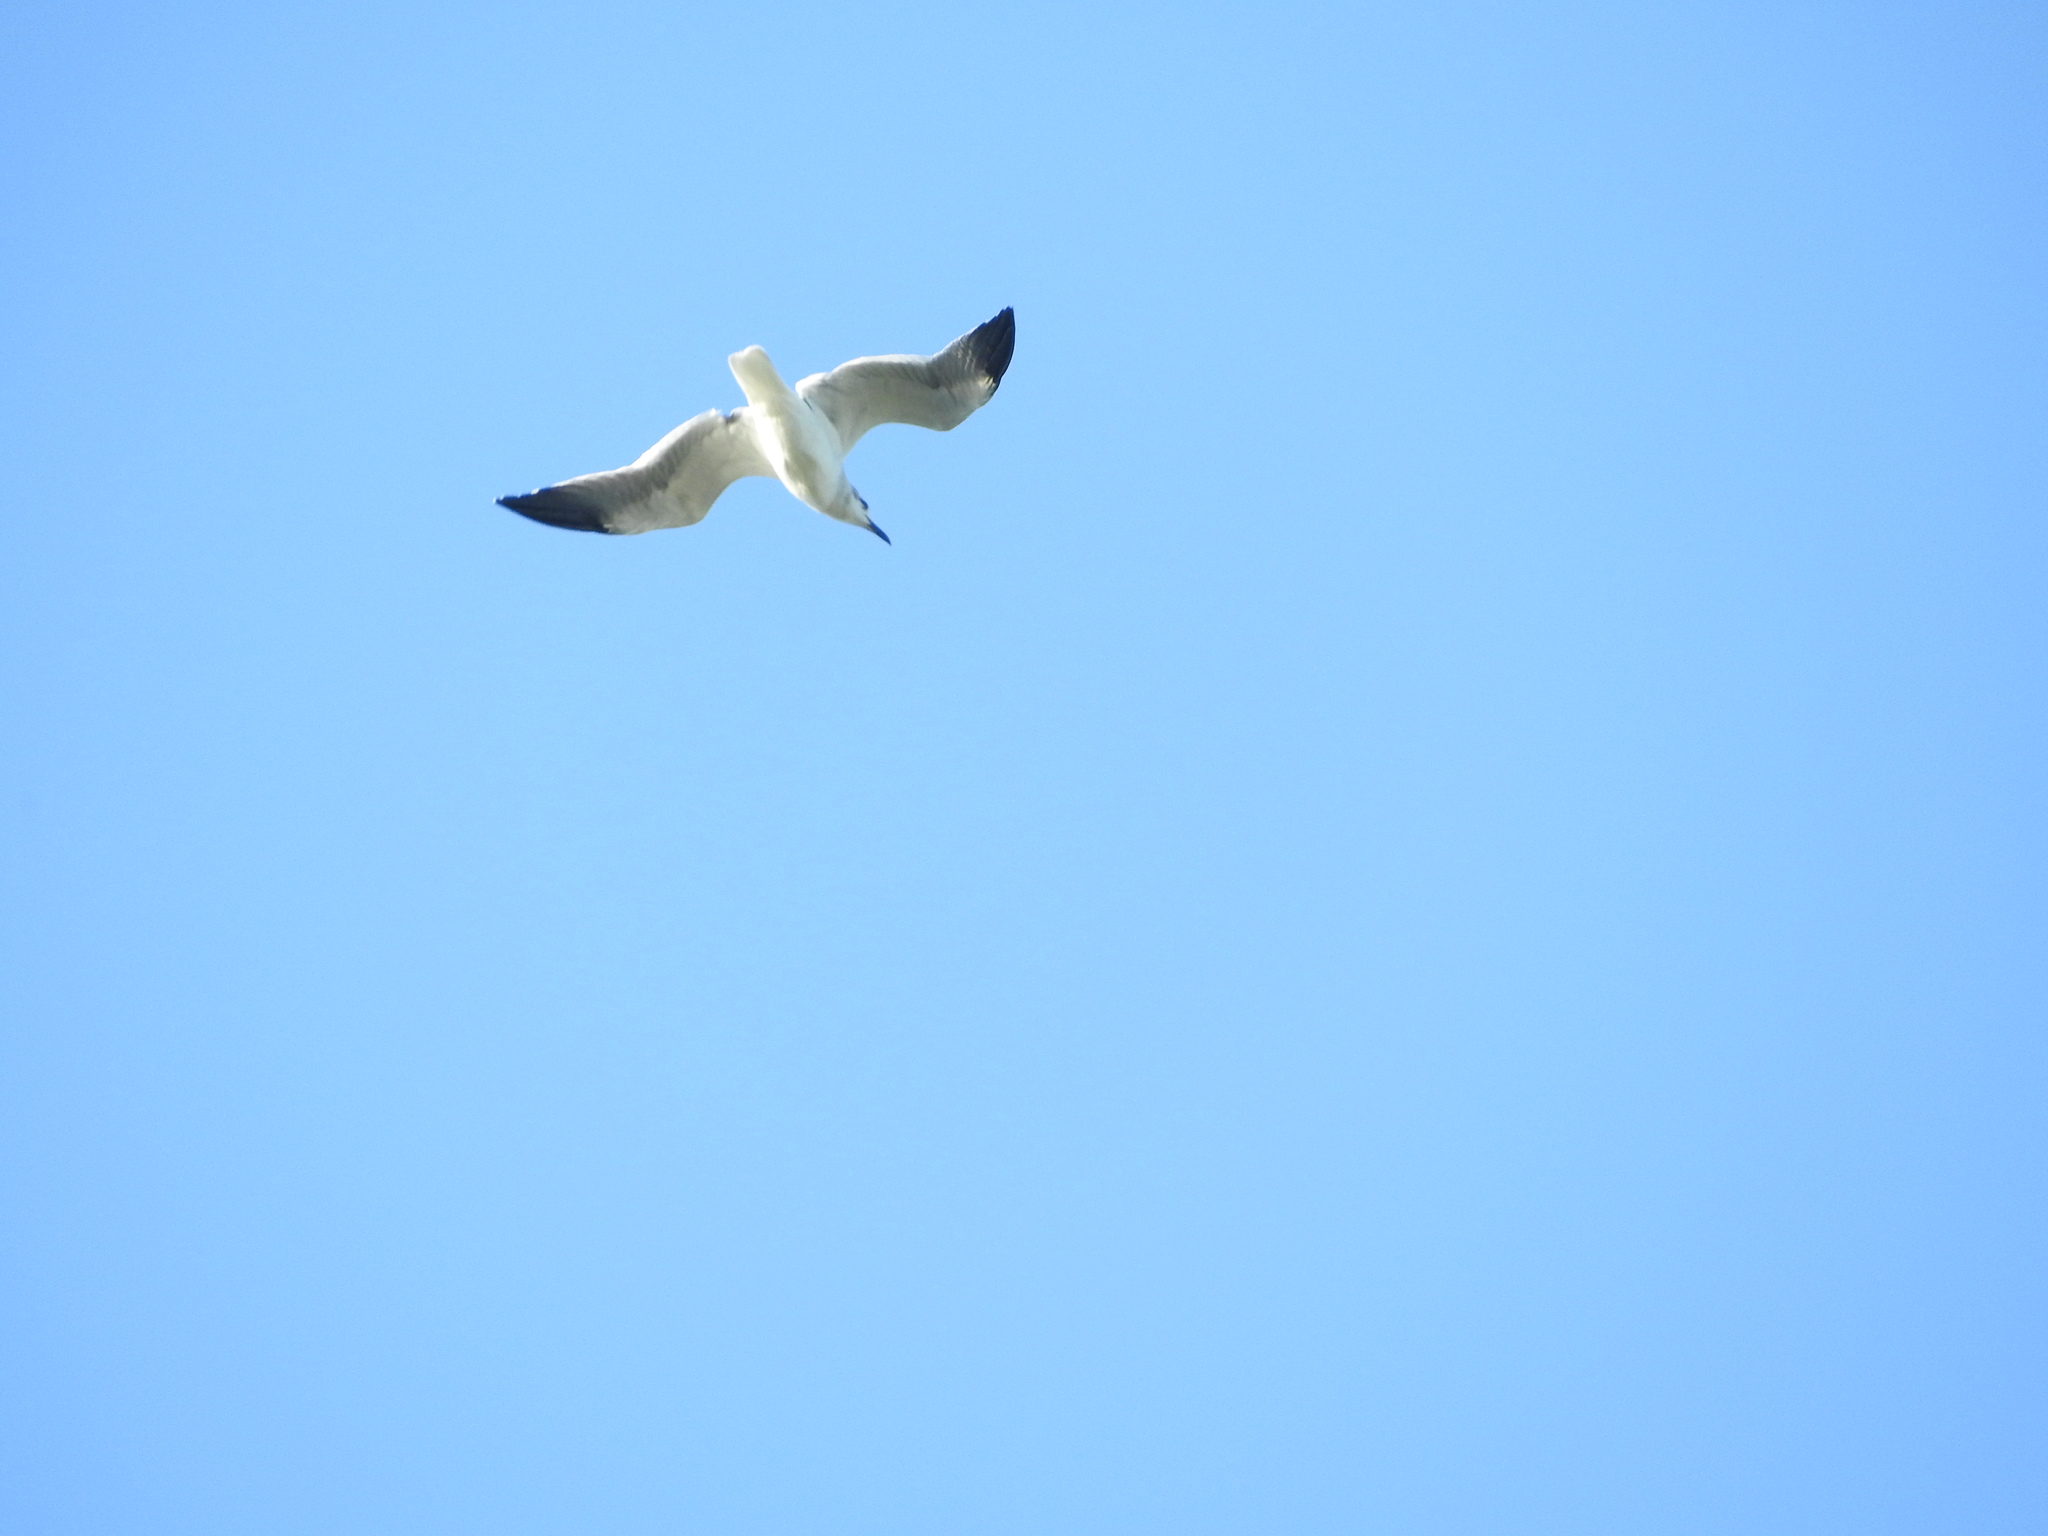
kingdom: Animalia
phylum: Chordata
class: Aves
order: Charadriiformes
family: Laridae
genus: Leucophaeus
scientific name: Leucophaeus atricilla
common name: Laughing gull
